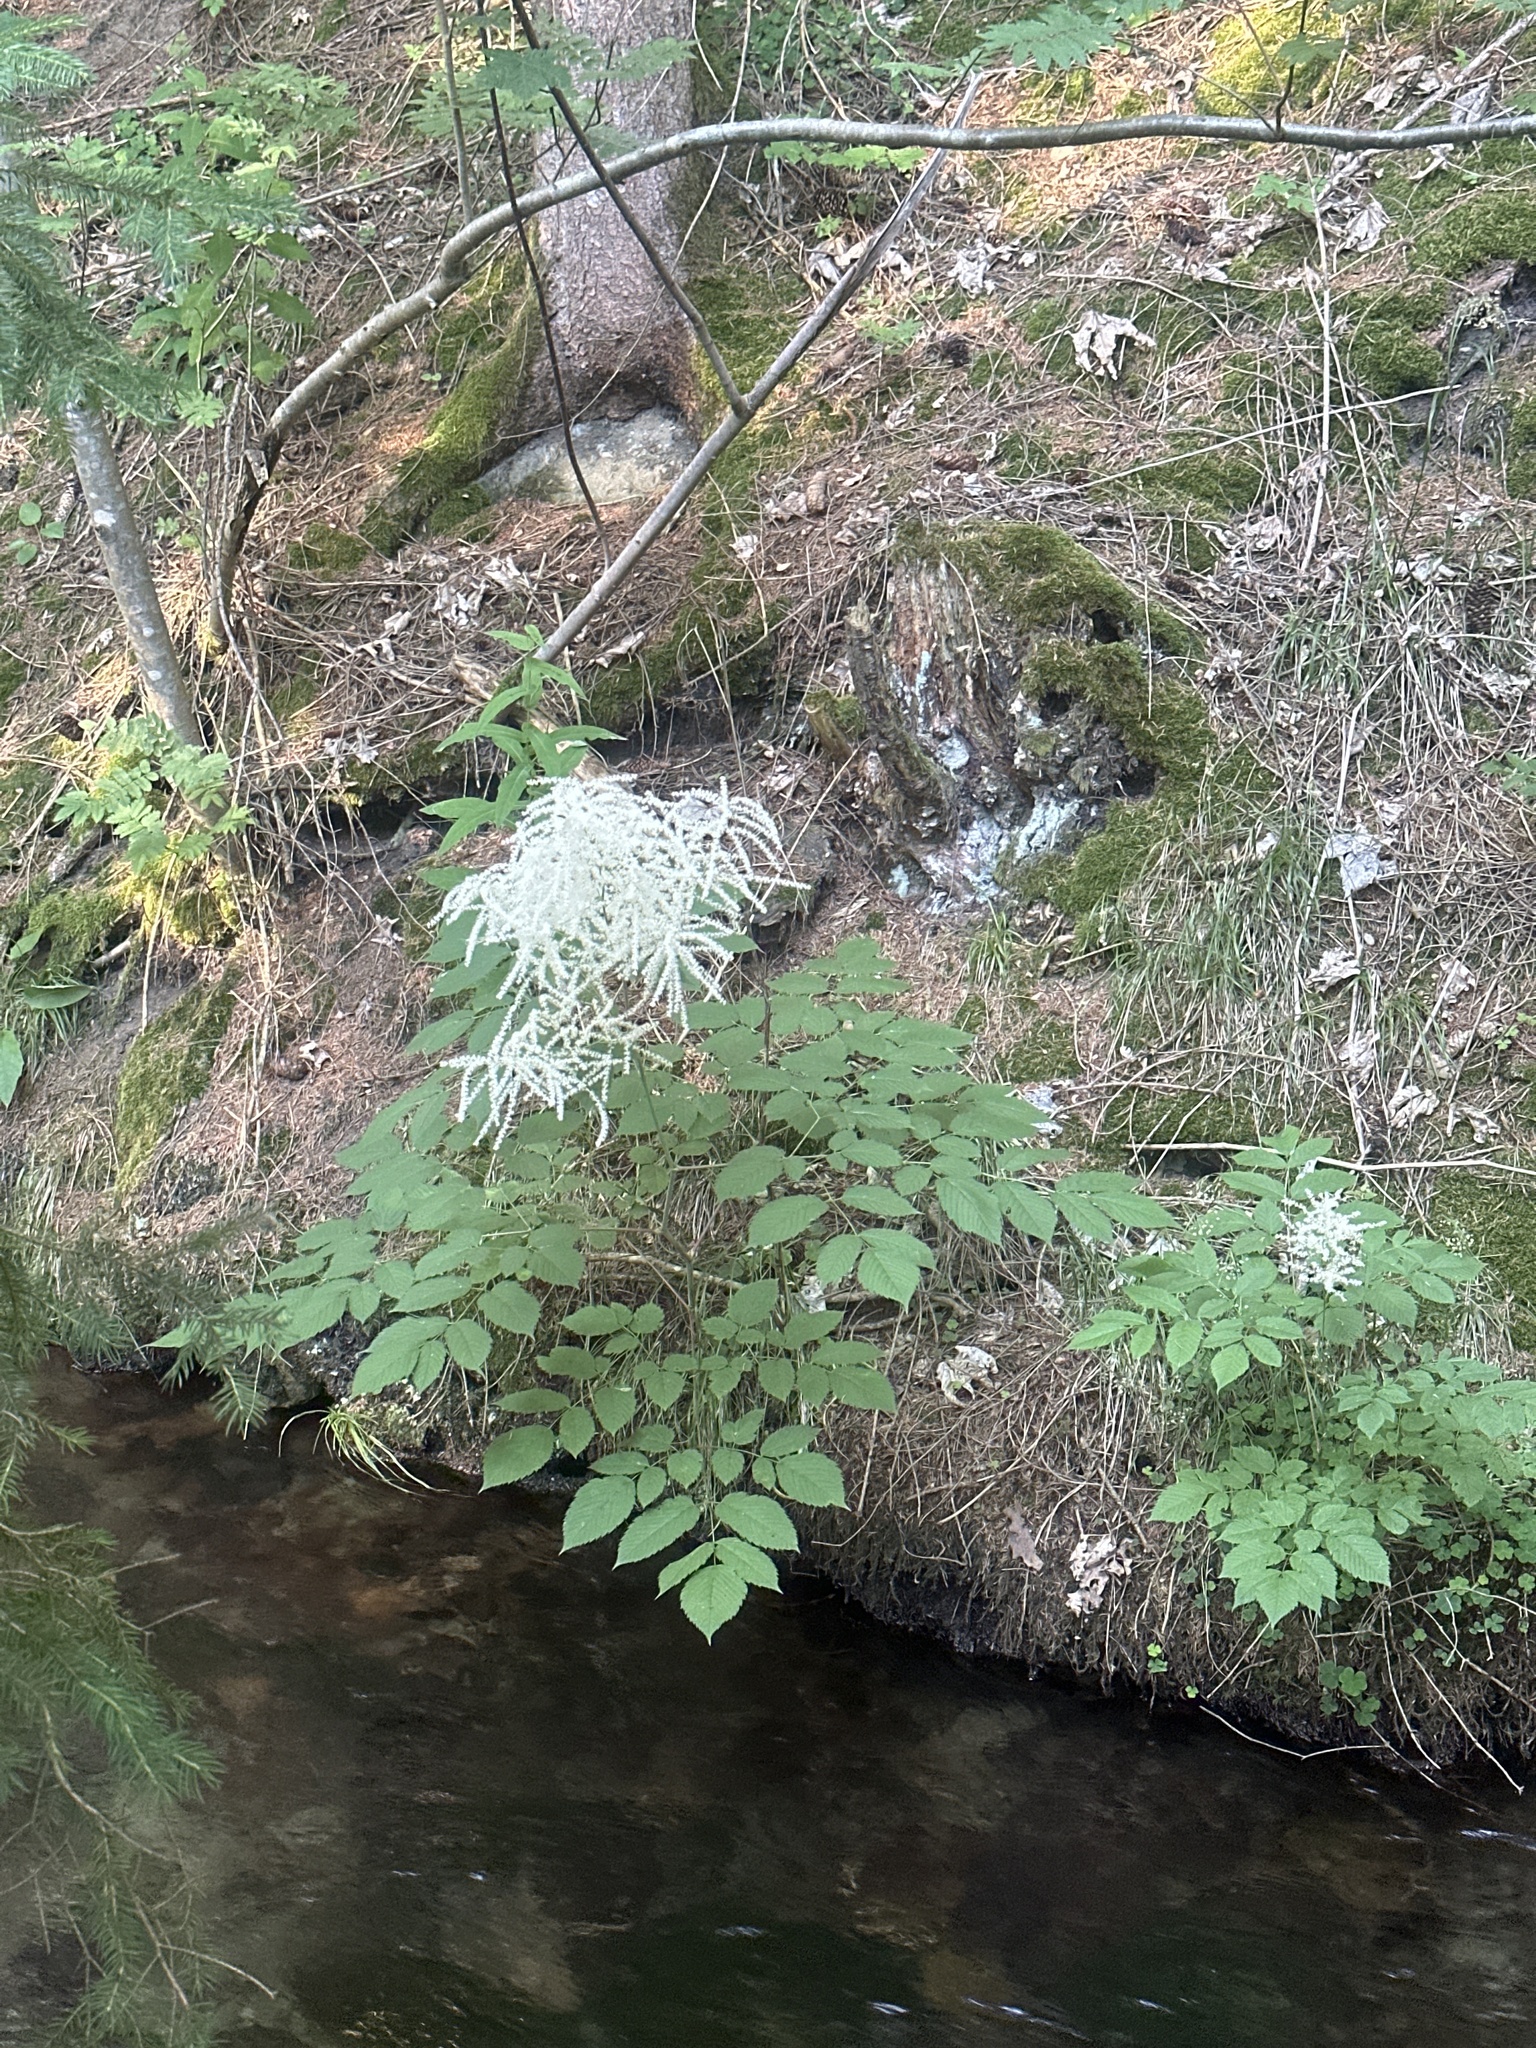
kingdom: Plantae
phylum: Tracheophyta
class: Magnoliopsida
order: Rosales
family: Rosaceae
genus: Aruncus
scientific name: Aruncus dioicus
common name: Buck's-beard
